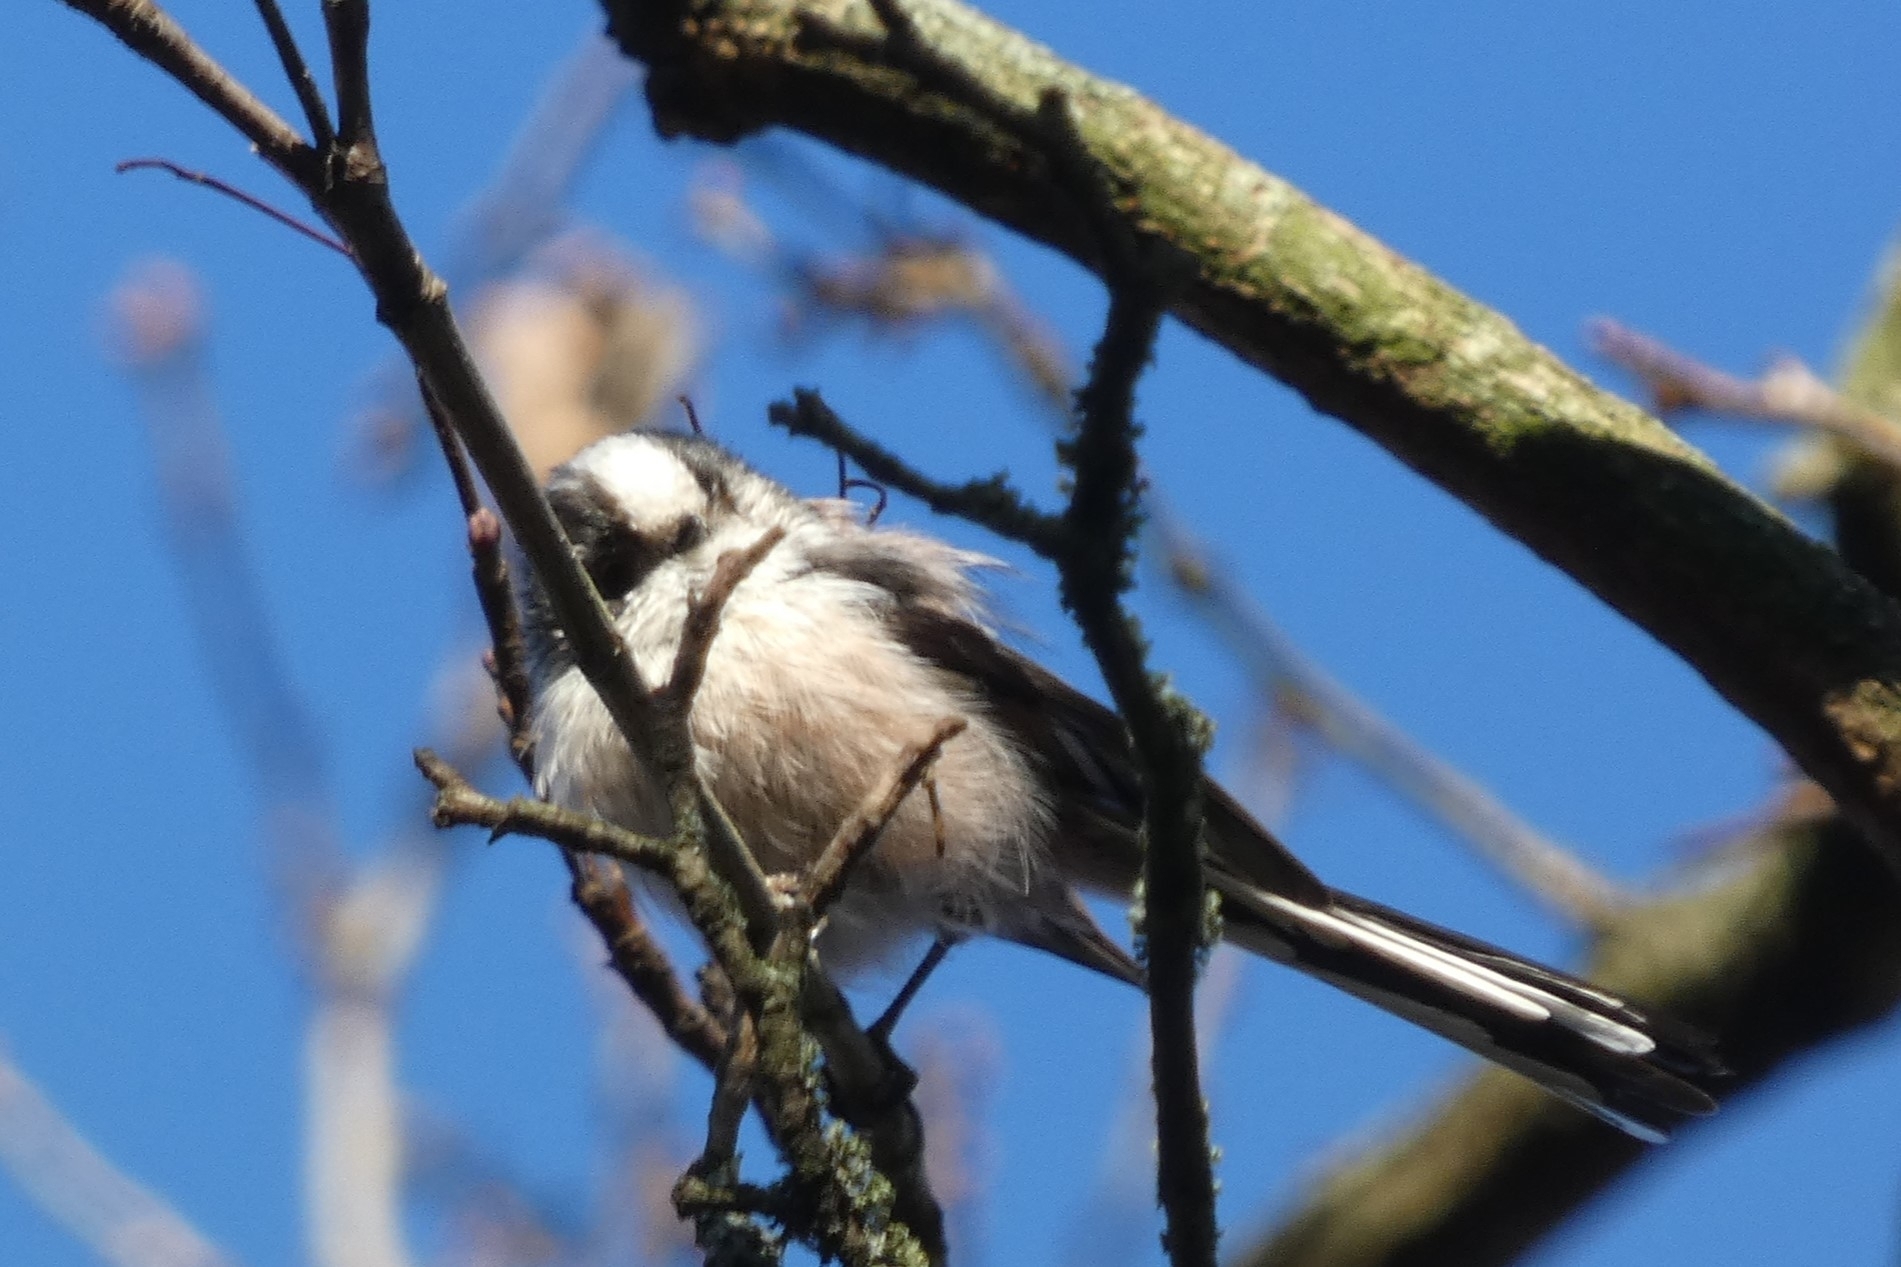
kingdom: Animalia
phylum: Chordata
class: Aves
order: Passeriformes
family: Aegithalidae
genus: Aegithalos
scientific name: Aegithalos caudatus
